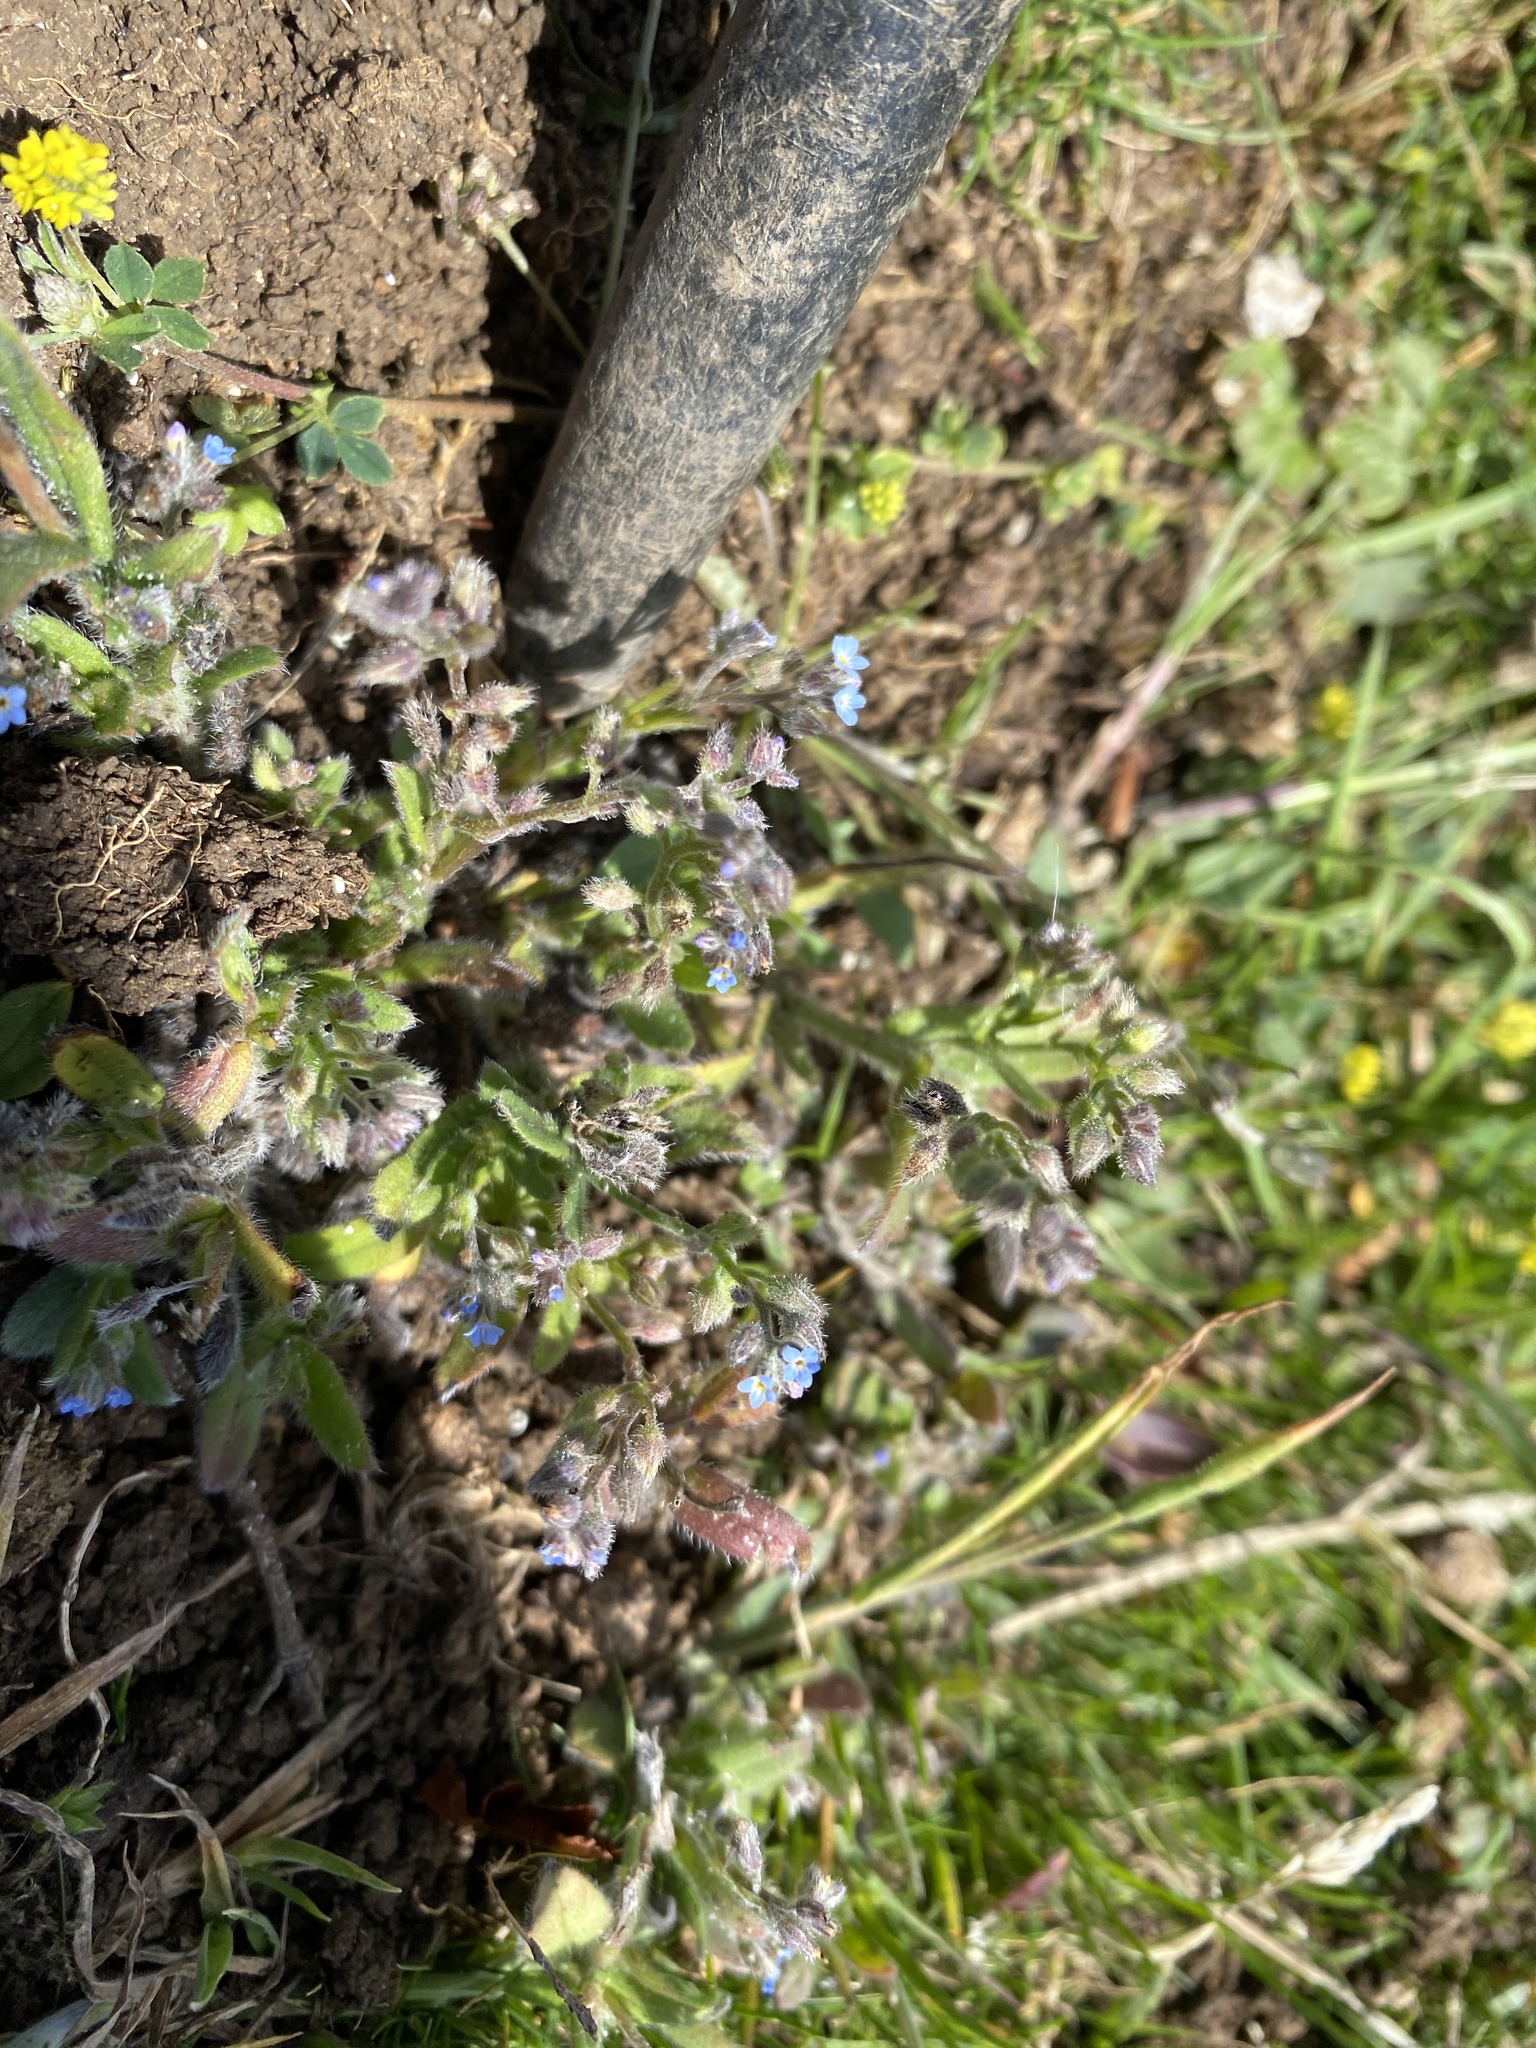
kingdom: Plantae
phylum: Tracheophyta
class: Magnoliopsida
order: Boraginales
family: Boraginaceae
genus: Myosotis
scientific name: Myosotis arvensis
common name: Field forget-me-not
